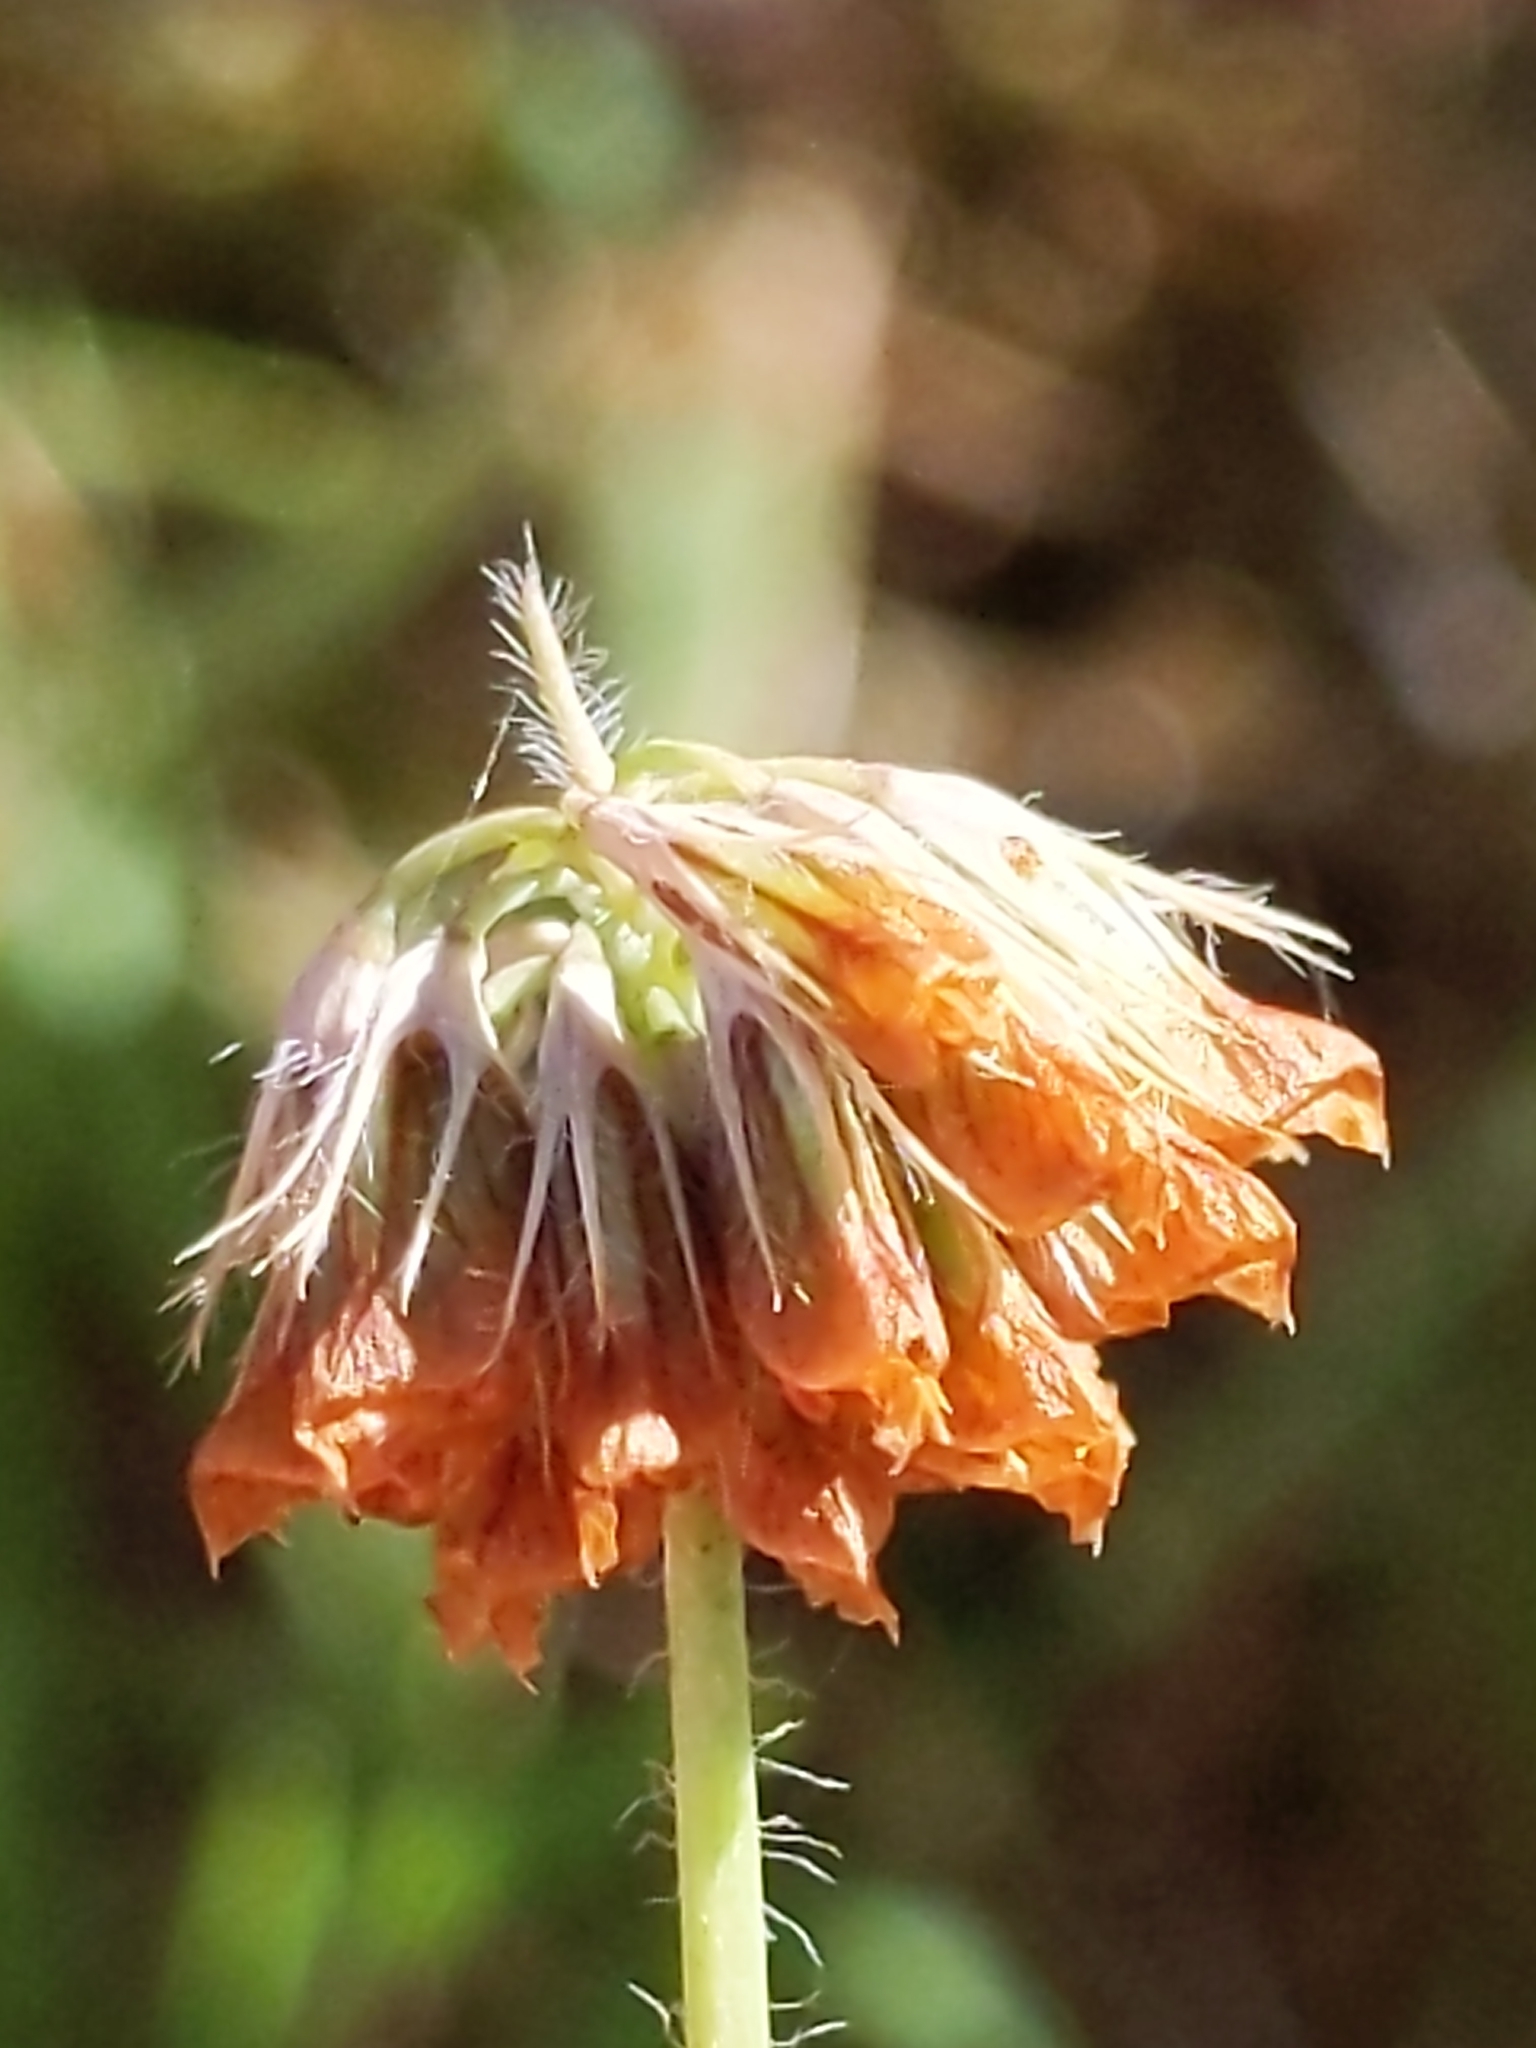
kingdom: Plantae
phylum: Tracheophyta
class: Magnoliopsida
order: Fabales
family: Fabaceae
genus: Trifolium
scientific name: Trifolium bifidum
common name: Notch-leaf clover
